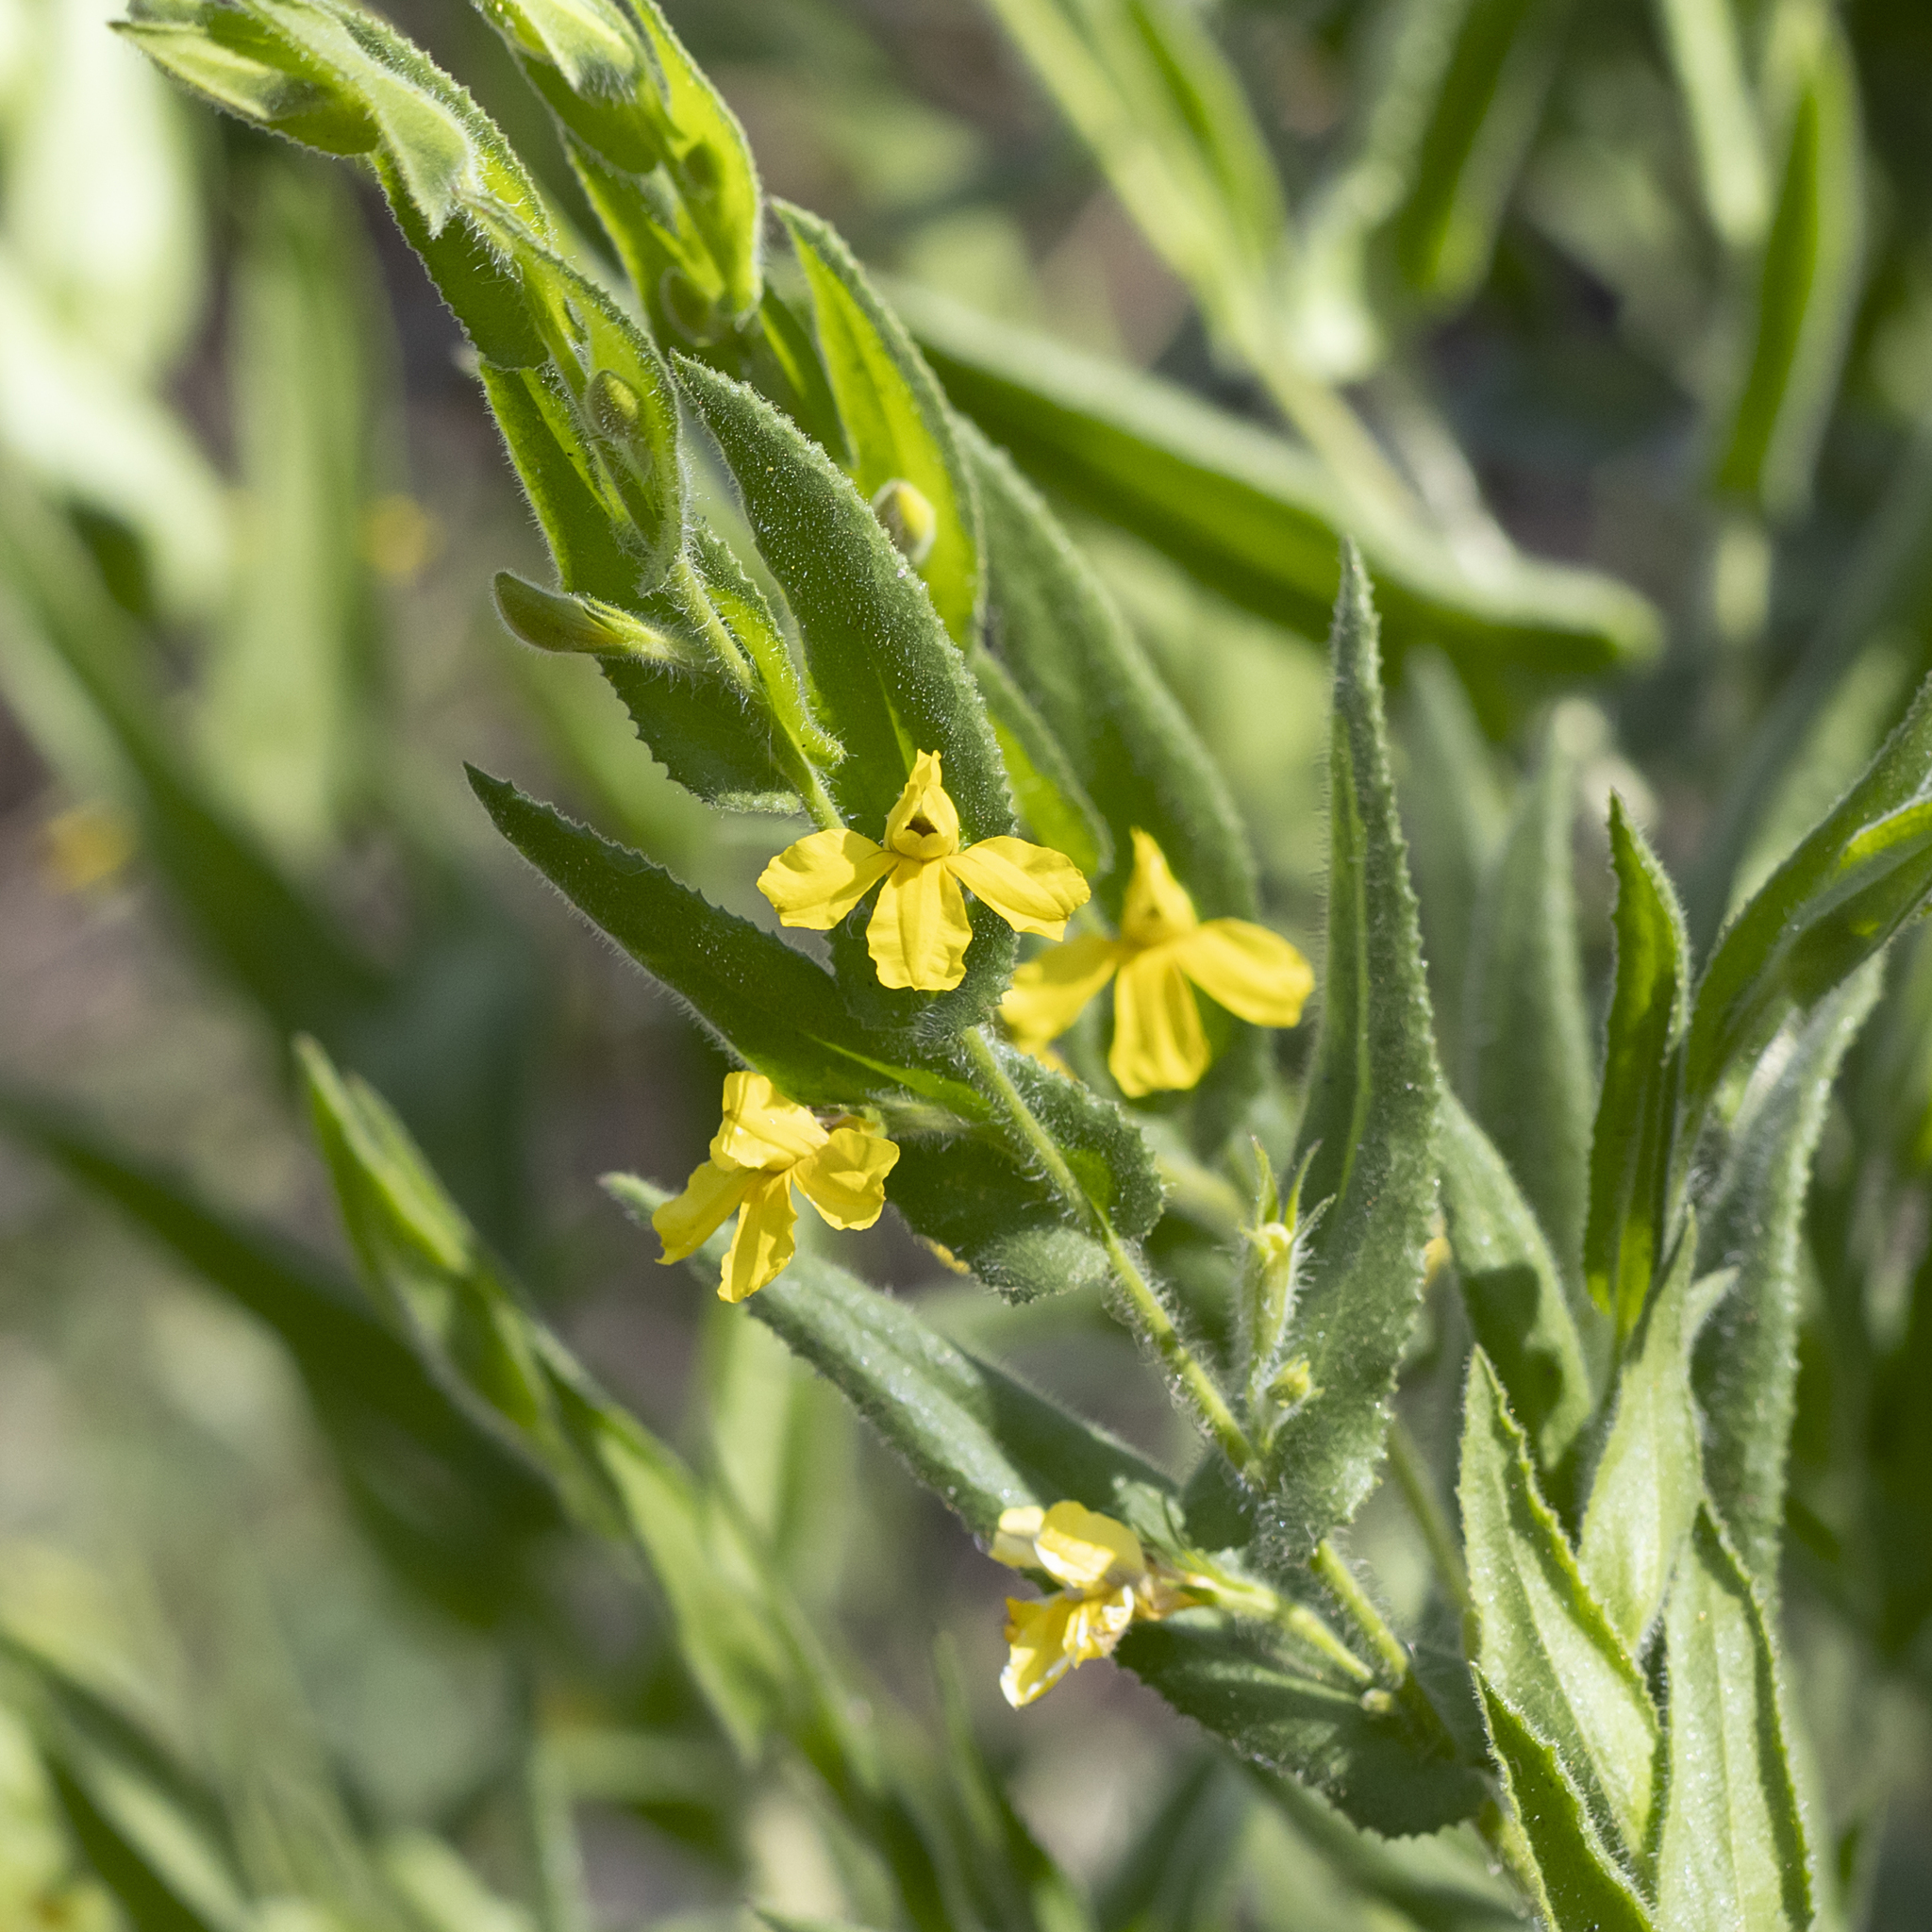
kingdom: Plantae
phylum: Tracheophyta
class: Magnoliopsida
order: Asterales
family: Goodeniaceae
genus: Goodenia
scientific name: Goodenia amplexans
